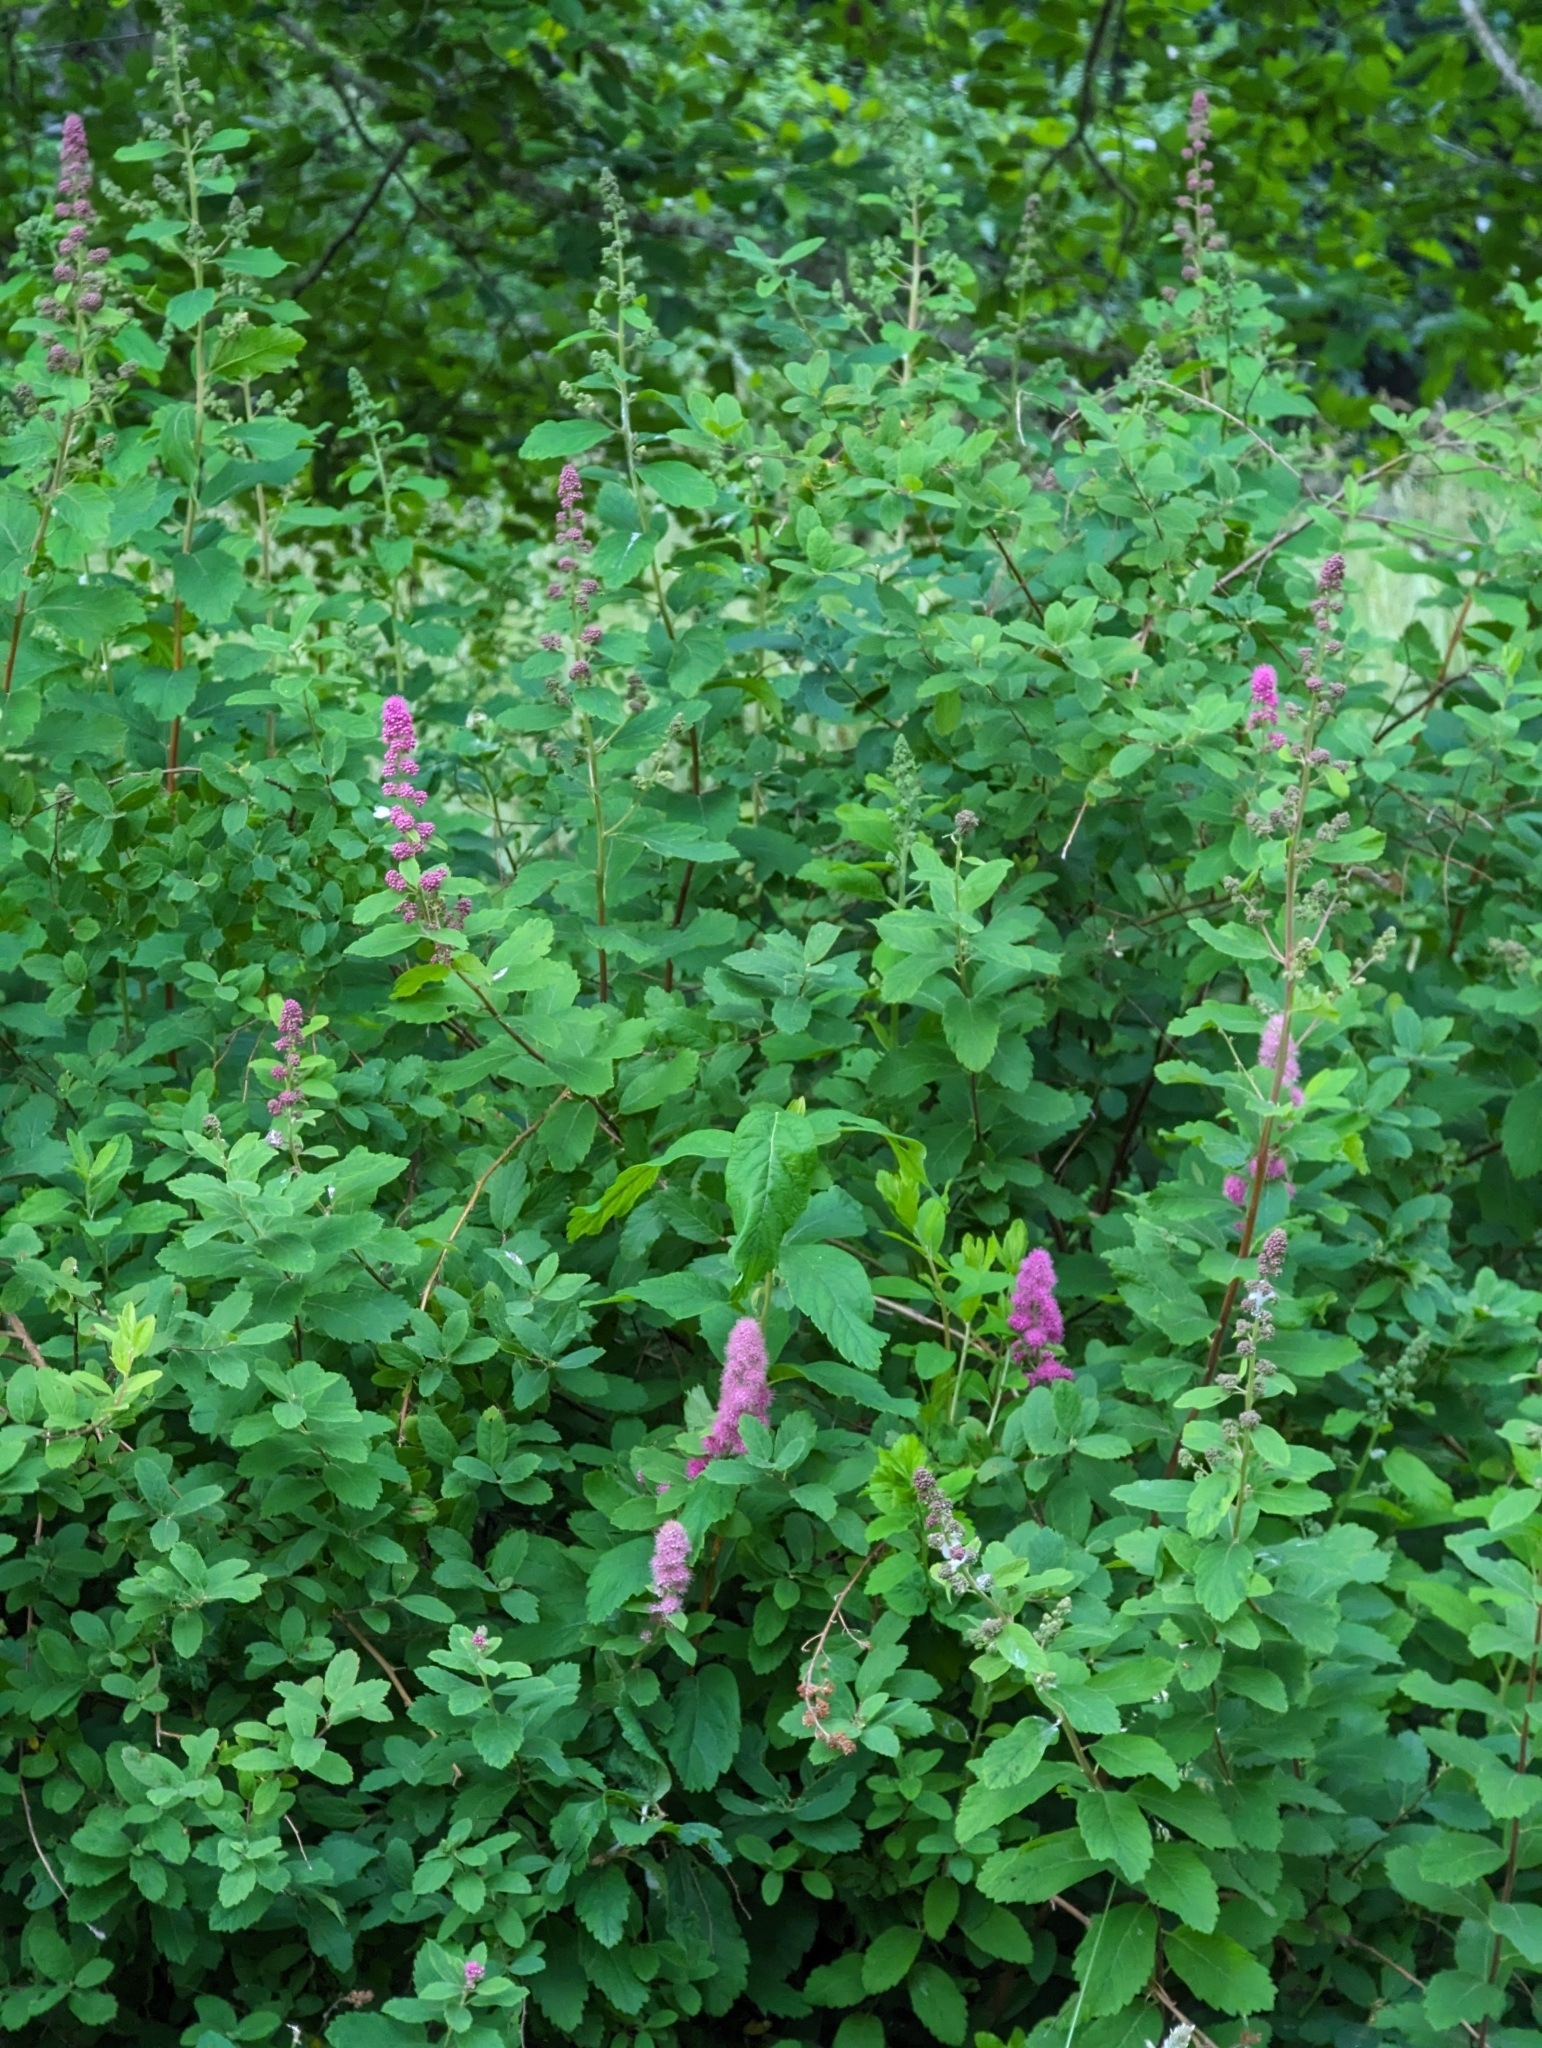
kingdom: Plantae
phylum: Tracheophyta
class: Magnoliopsida
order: Rosales
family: Rosaceae
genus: Spiraea
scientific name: Spiraea douglasii
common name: Steeplebush
